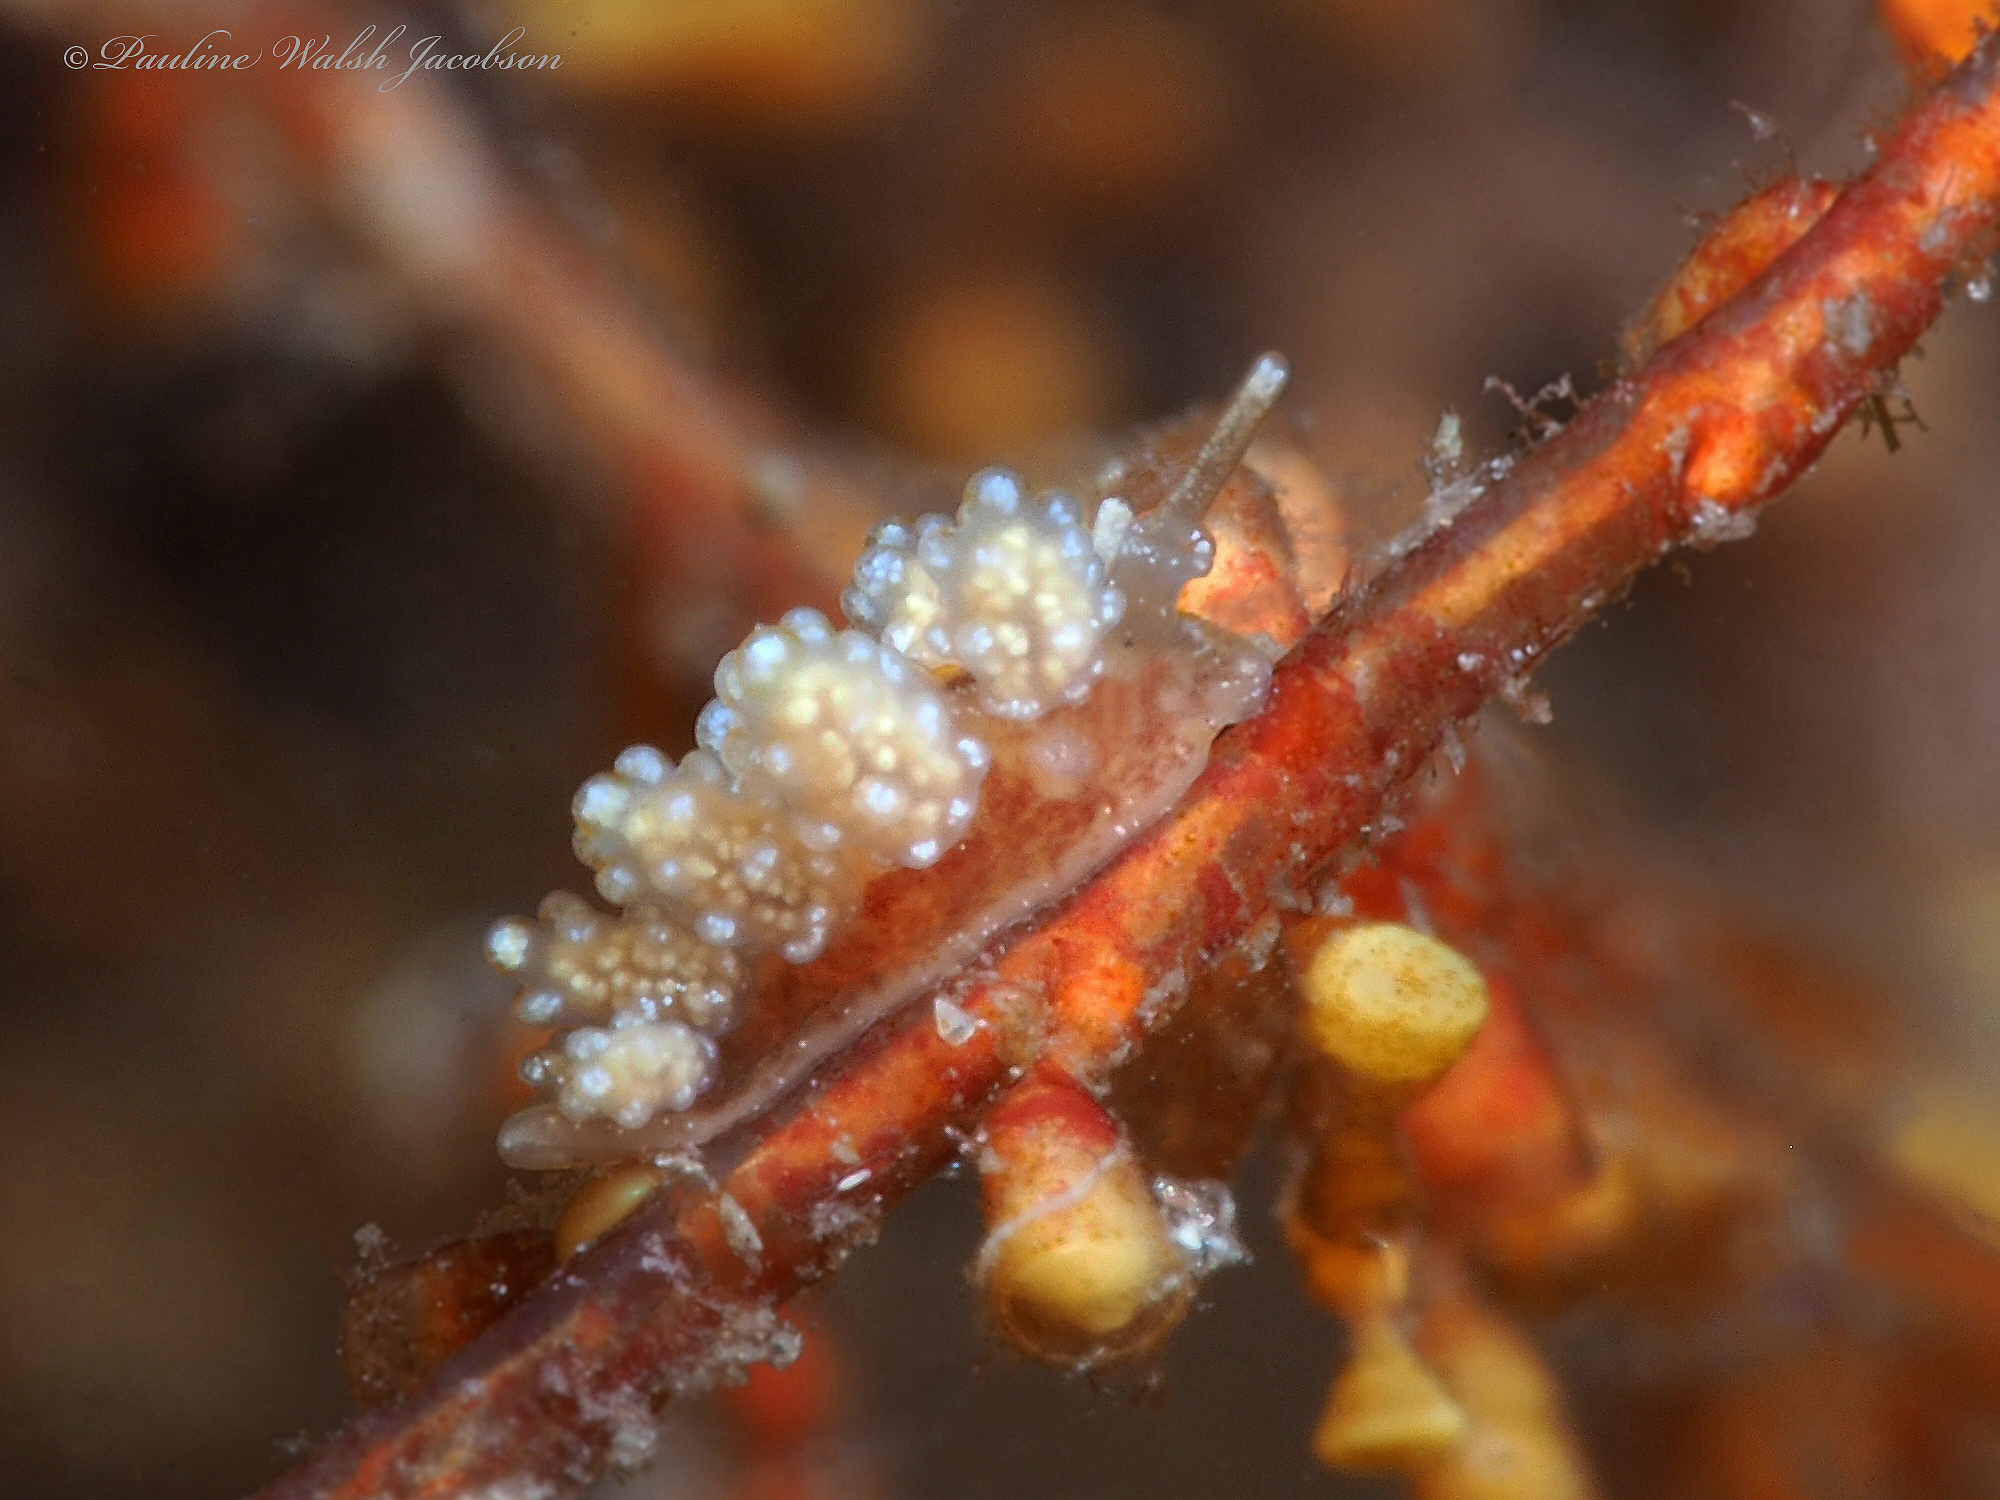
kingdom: Animalia
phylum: Mollusca
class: Gastropoda
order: Nudibranchia
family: Dotidae
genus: Doto
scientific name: Doto varaderoensis
